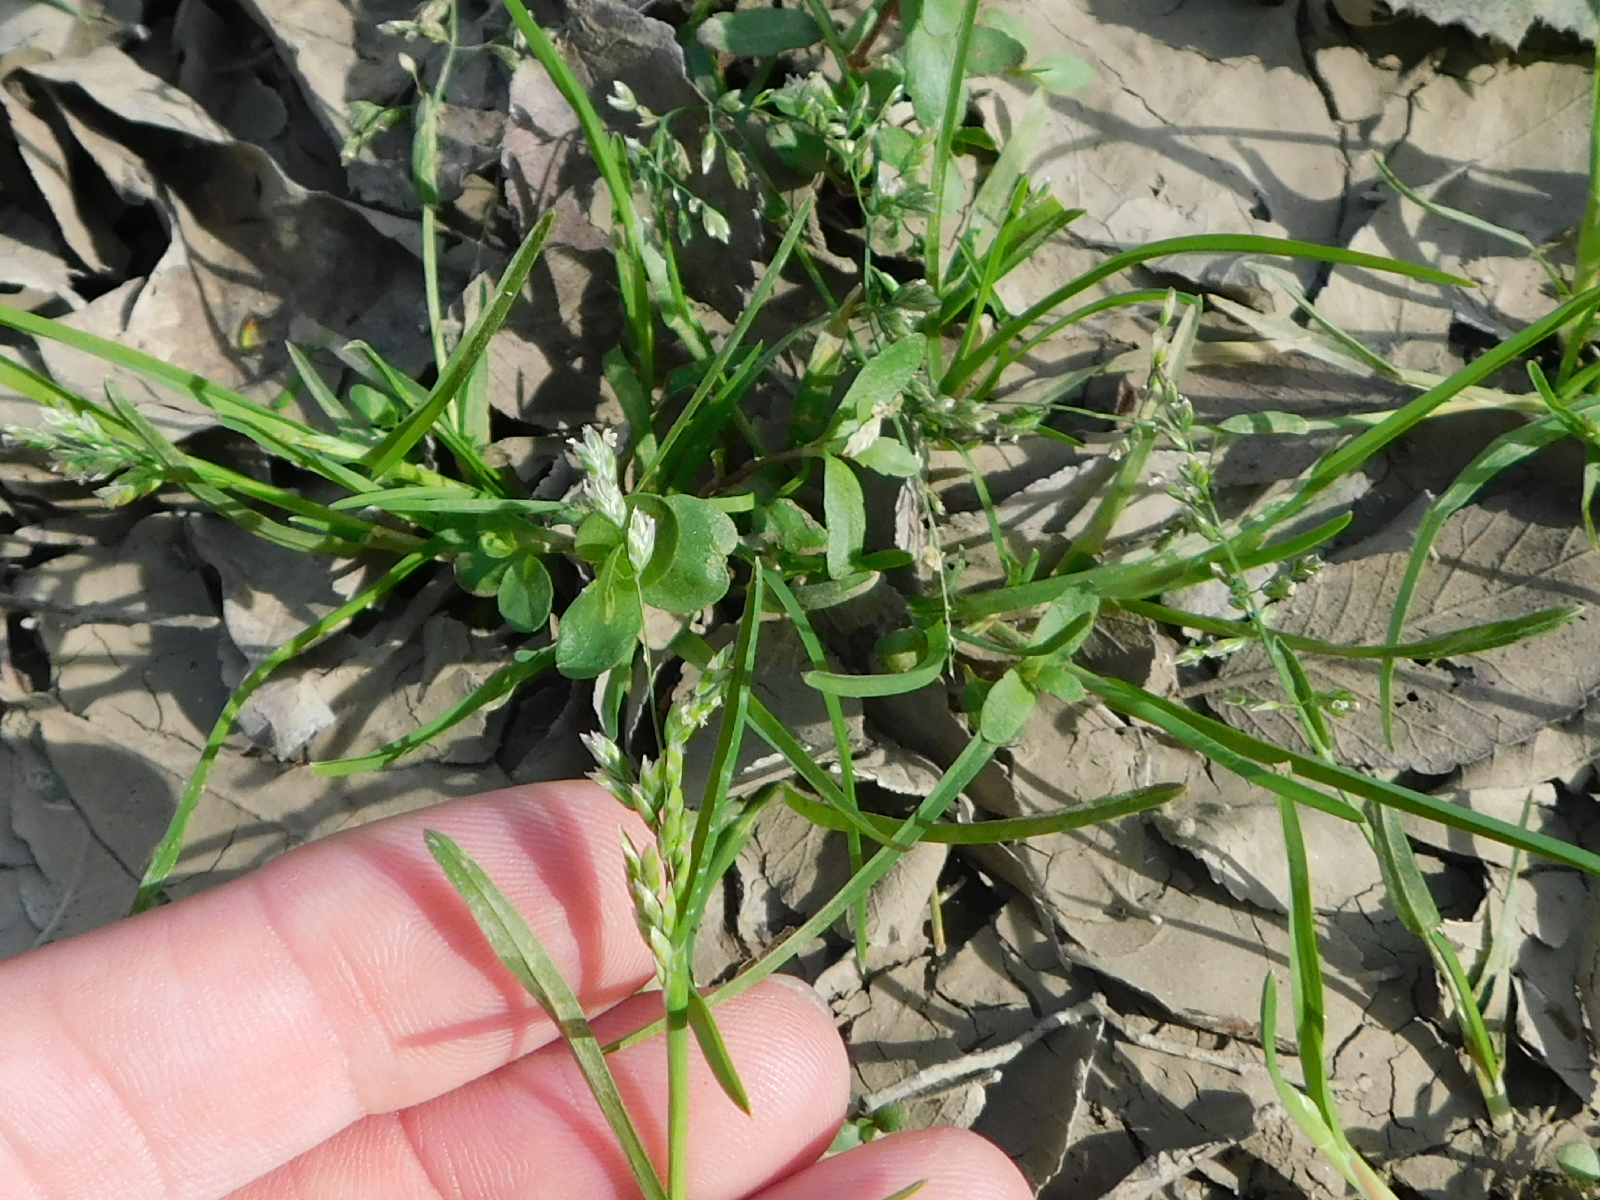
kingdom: Plantae
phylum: Tracheophyta
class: Liliopsida
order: Poales
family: Poaceae
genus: Poa
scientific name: Poa annua
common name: Annual bluegrass
